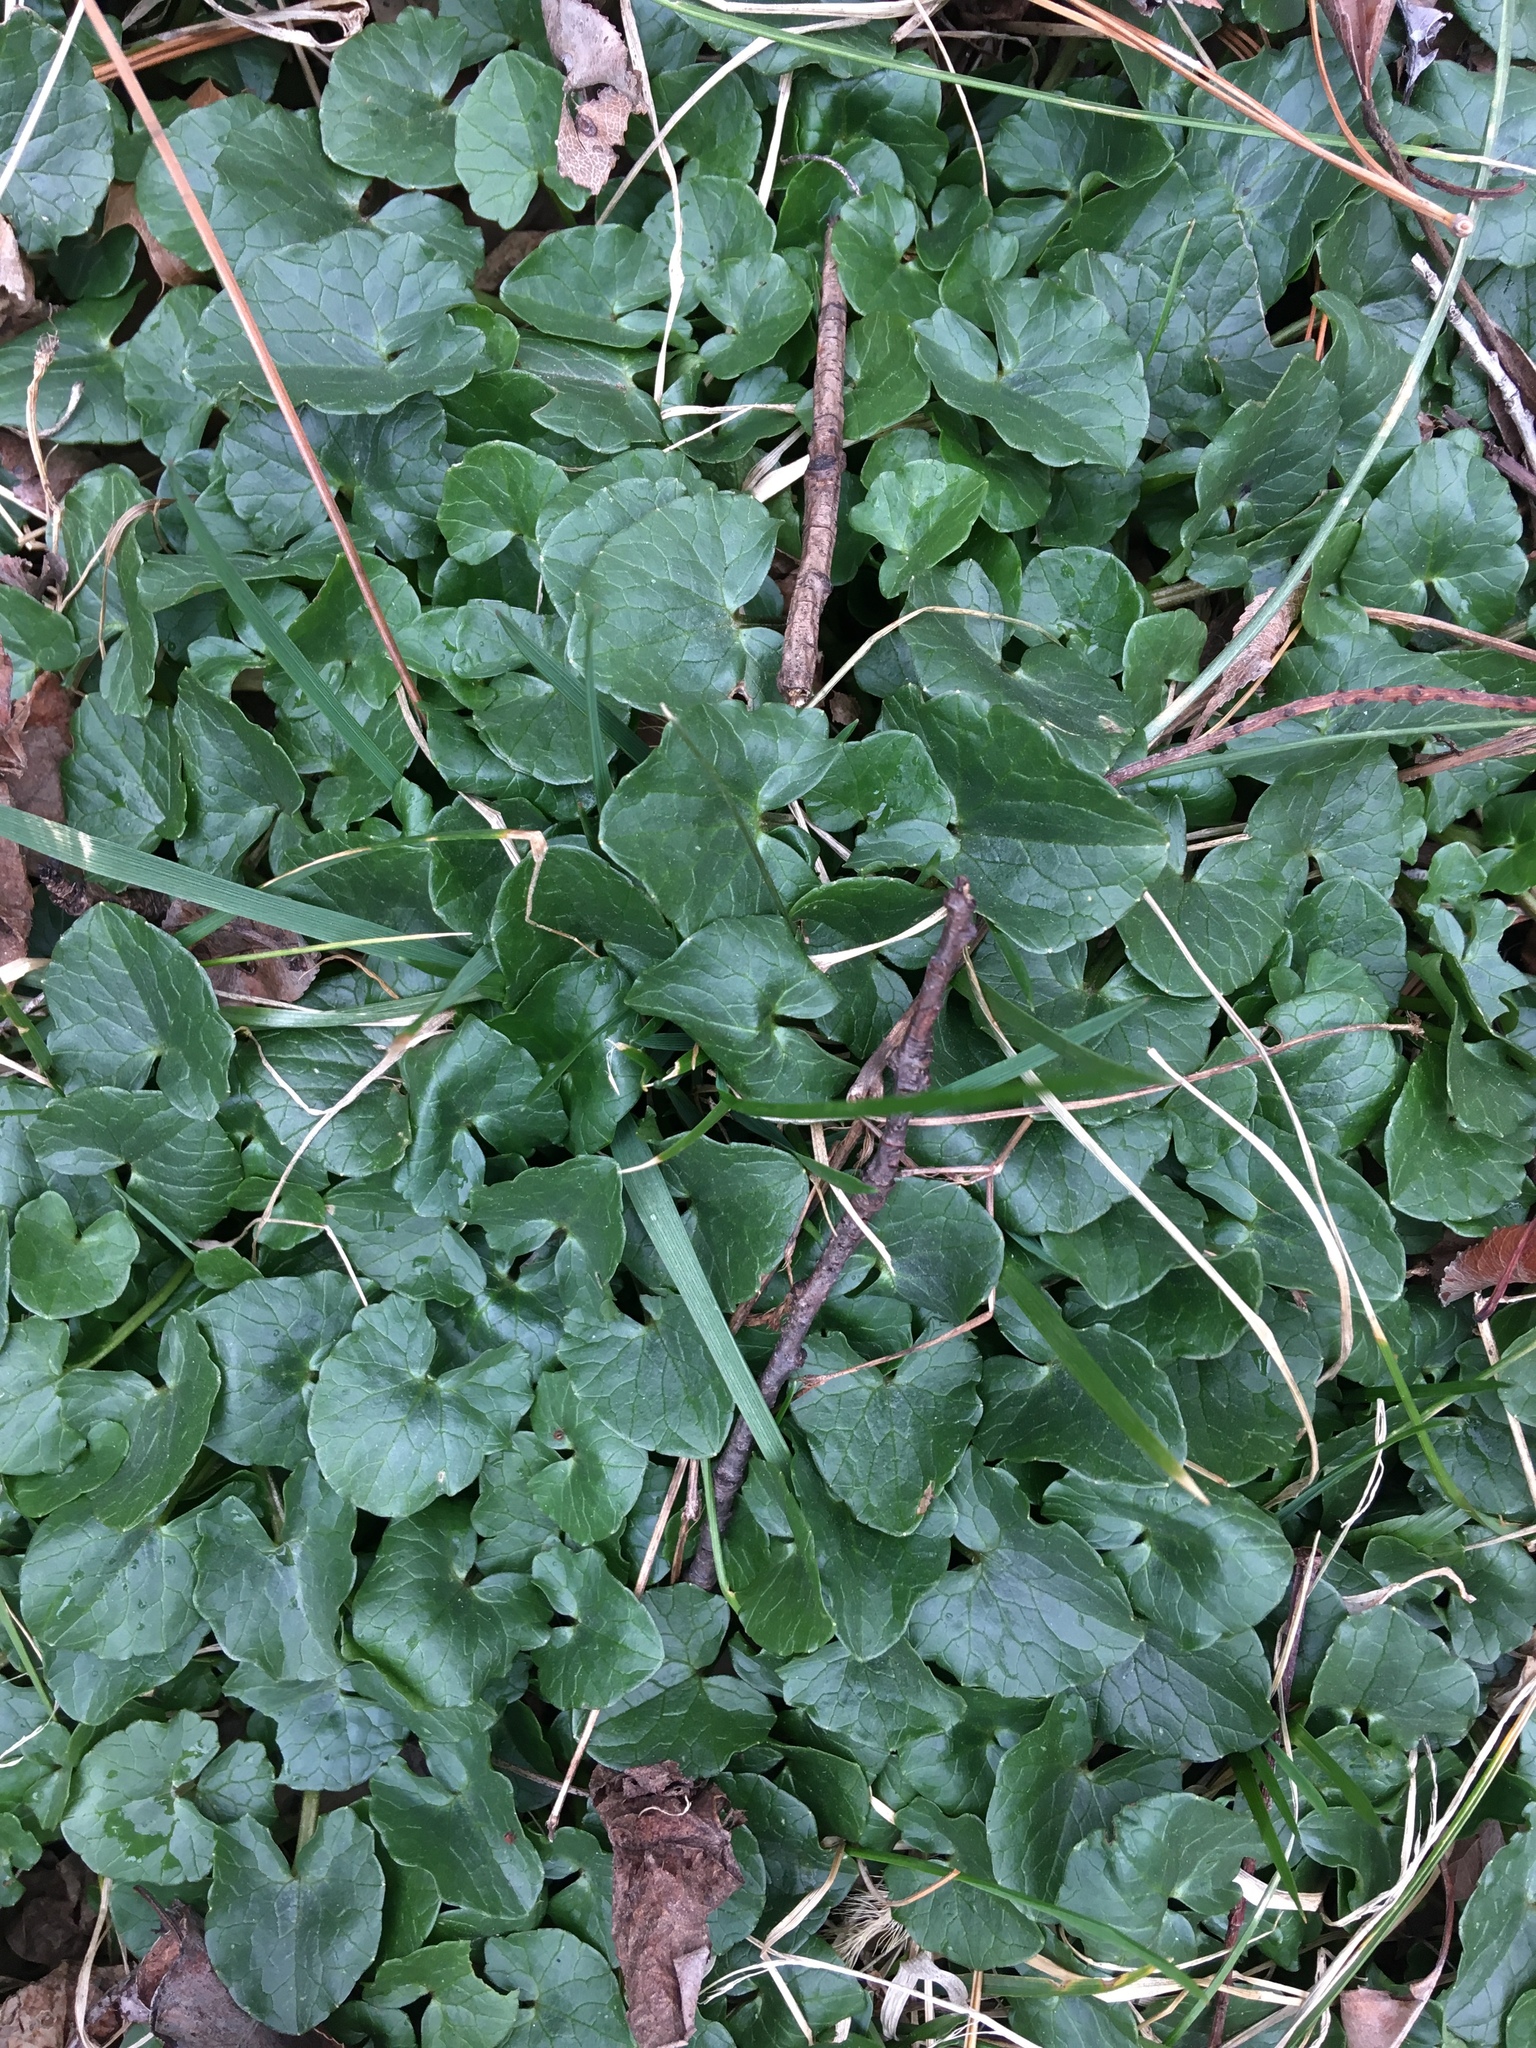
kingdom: Plantae
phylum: Tracheophyta
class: Magnoliopsida
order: Ranunculales
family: Ranunculaceae
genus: Ficaria
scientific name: Ficaria verna
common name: Lesser celandine
